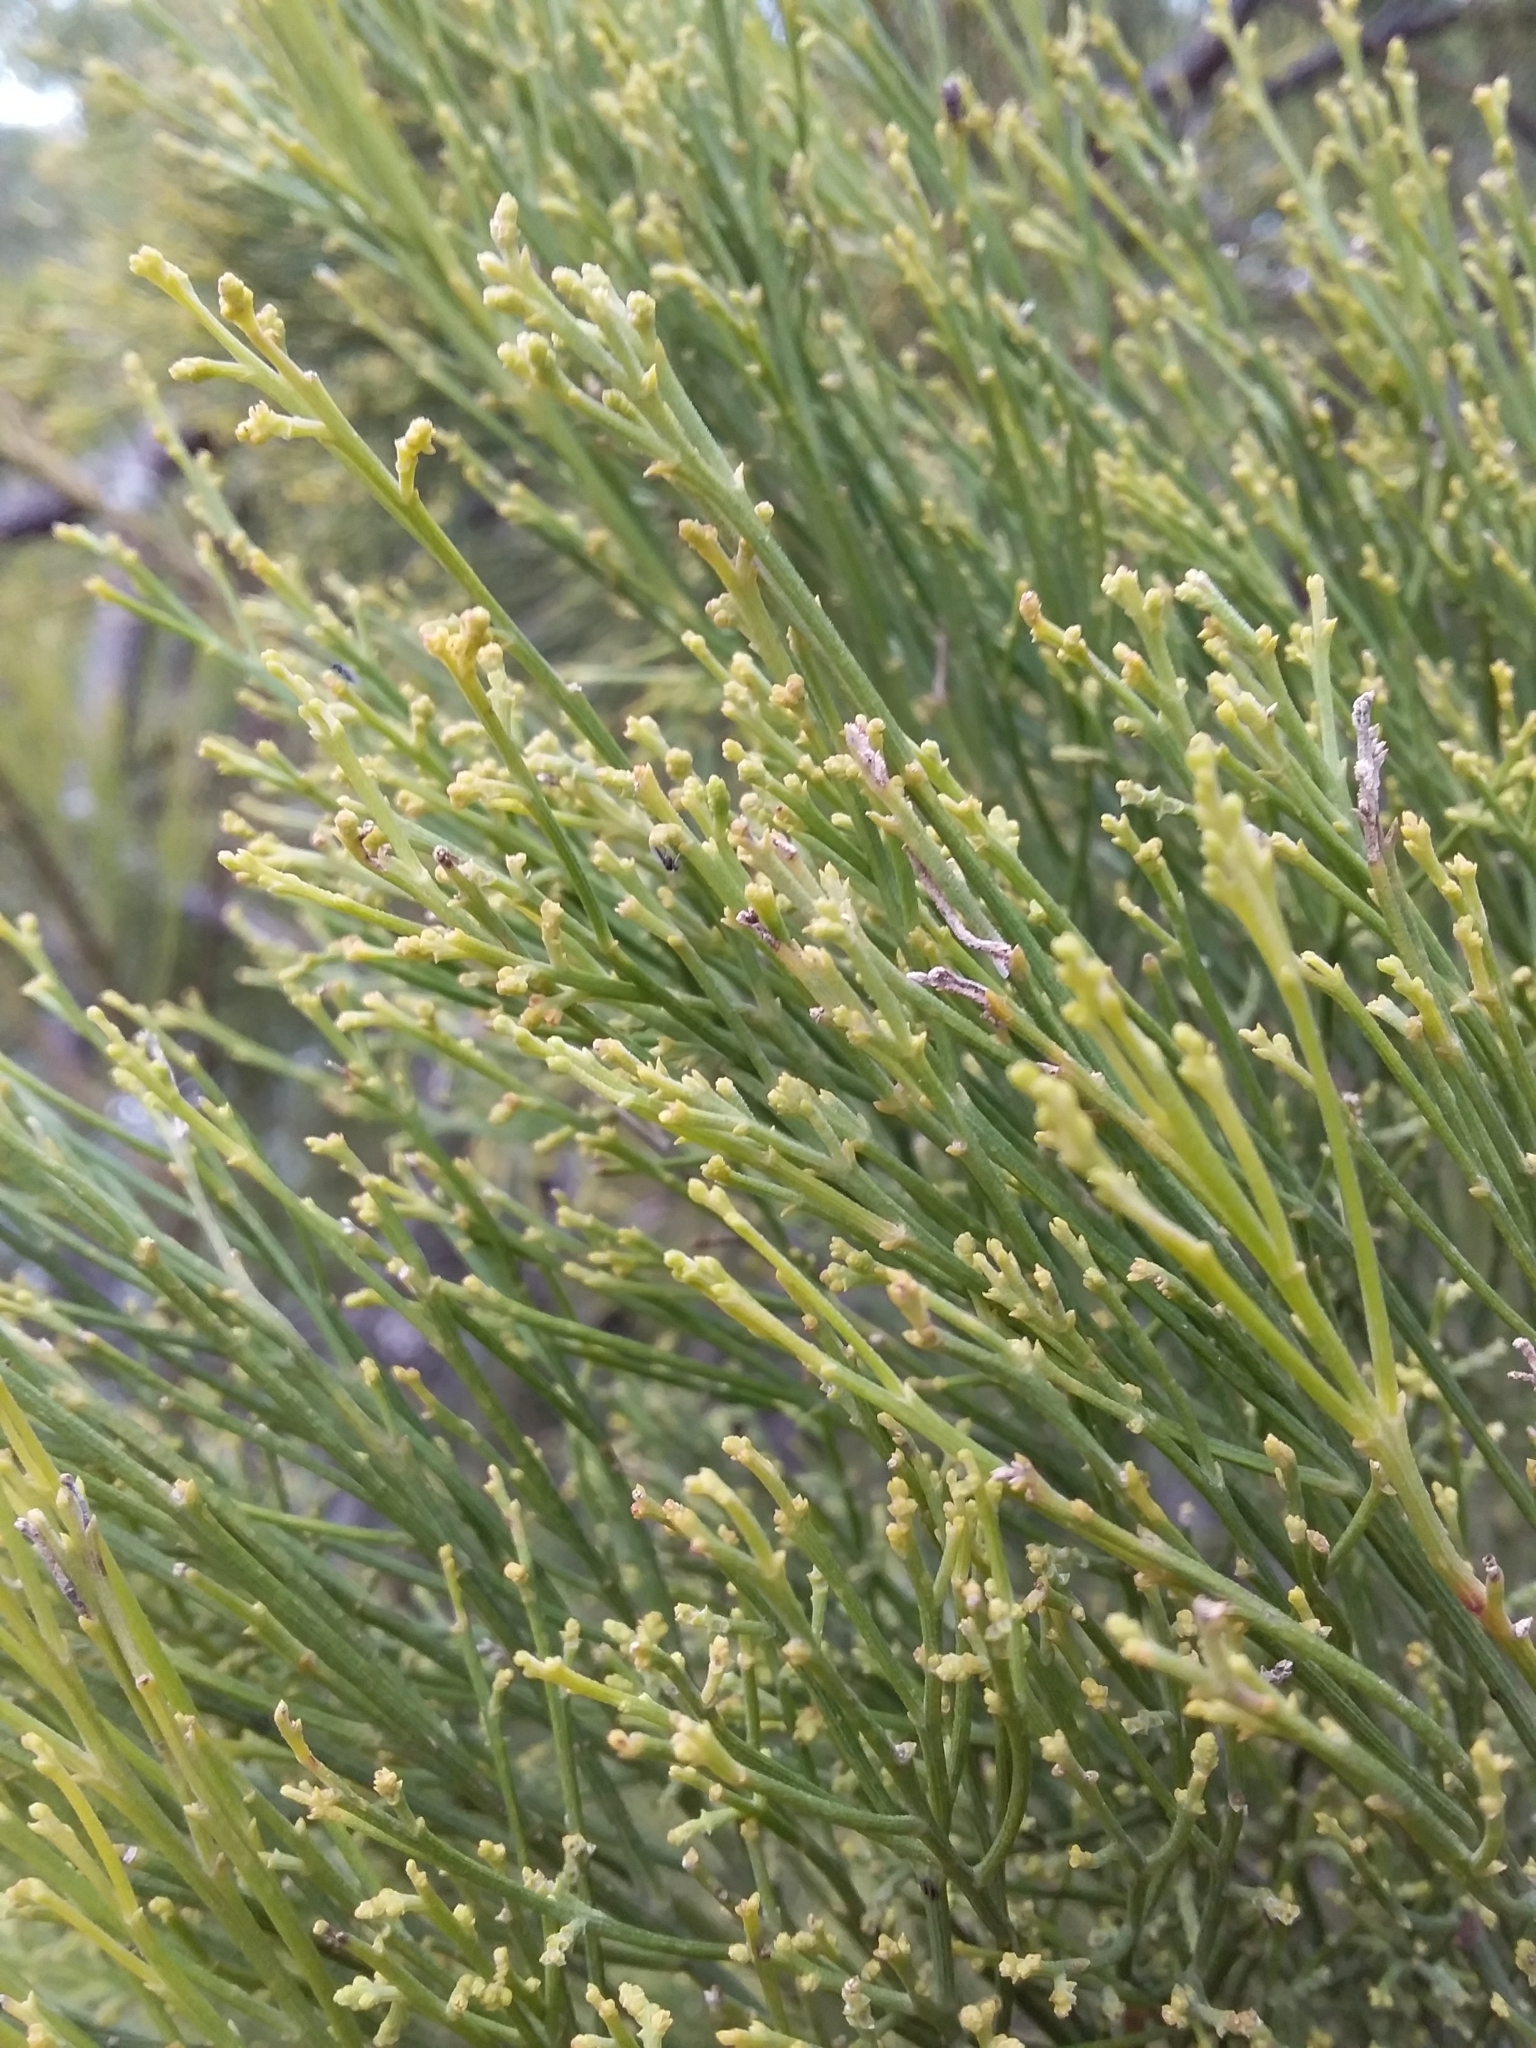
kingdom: Plantae
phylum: Tracheophyta
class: Magnoliopsida
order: Santalales
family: Santalaceae
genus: Exocarpos
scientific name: Exocarpos cupressiformis
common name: Cherry ballart
